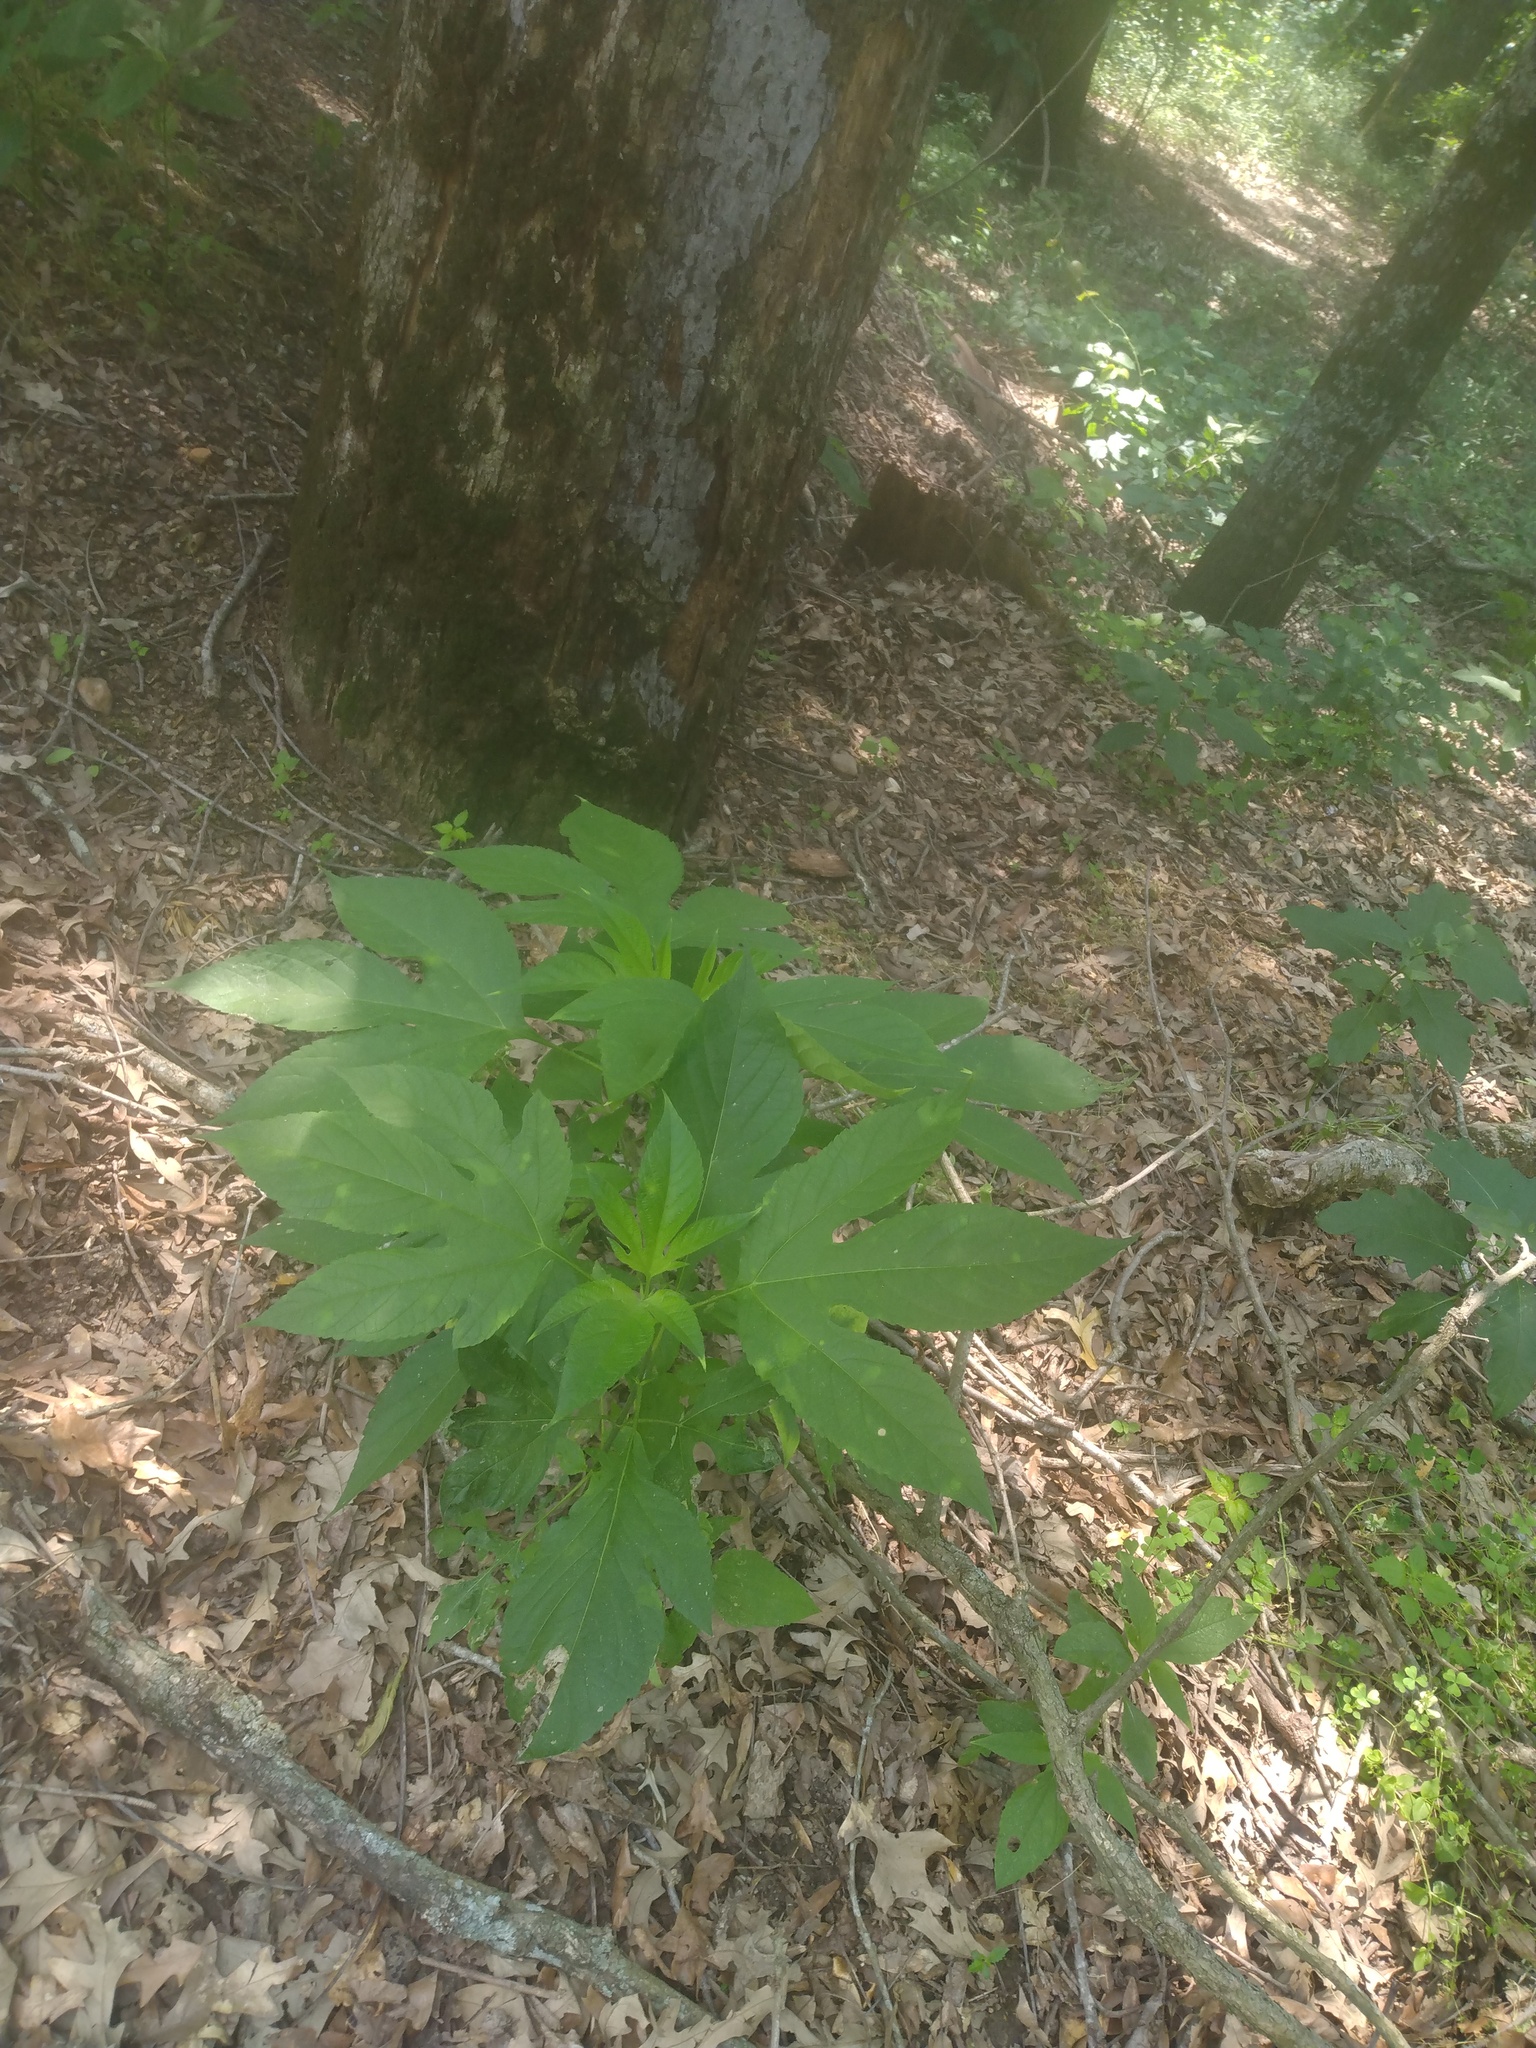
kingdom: Plantae
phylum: Tracheophyta
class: Magnoliopsida
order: Asterales
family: Asteraceae
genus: Ambrosia
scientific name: Ambrosia trifida
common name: Giant ragweed
